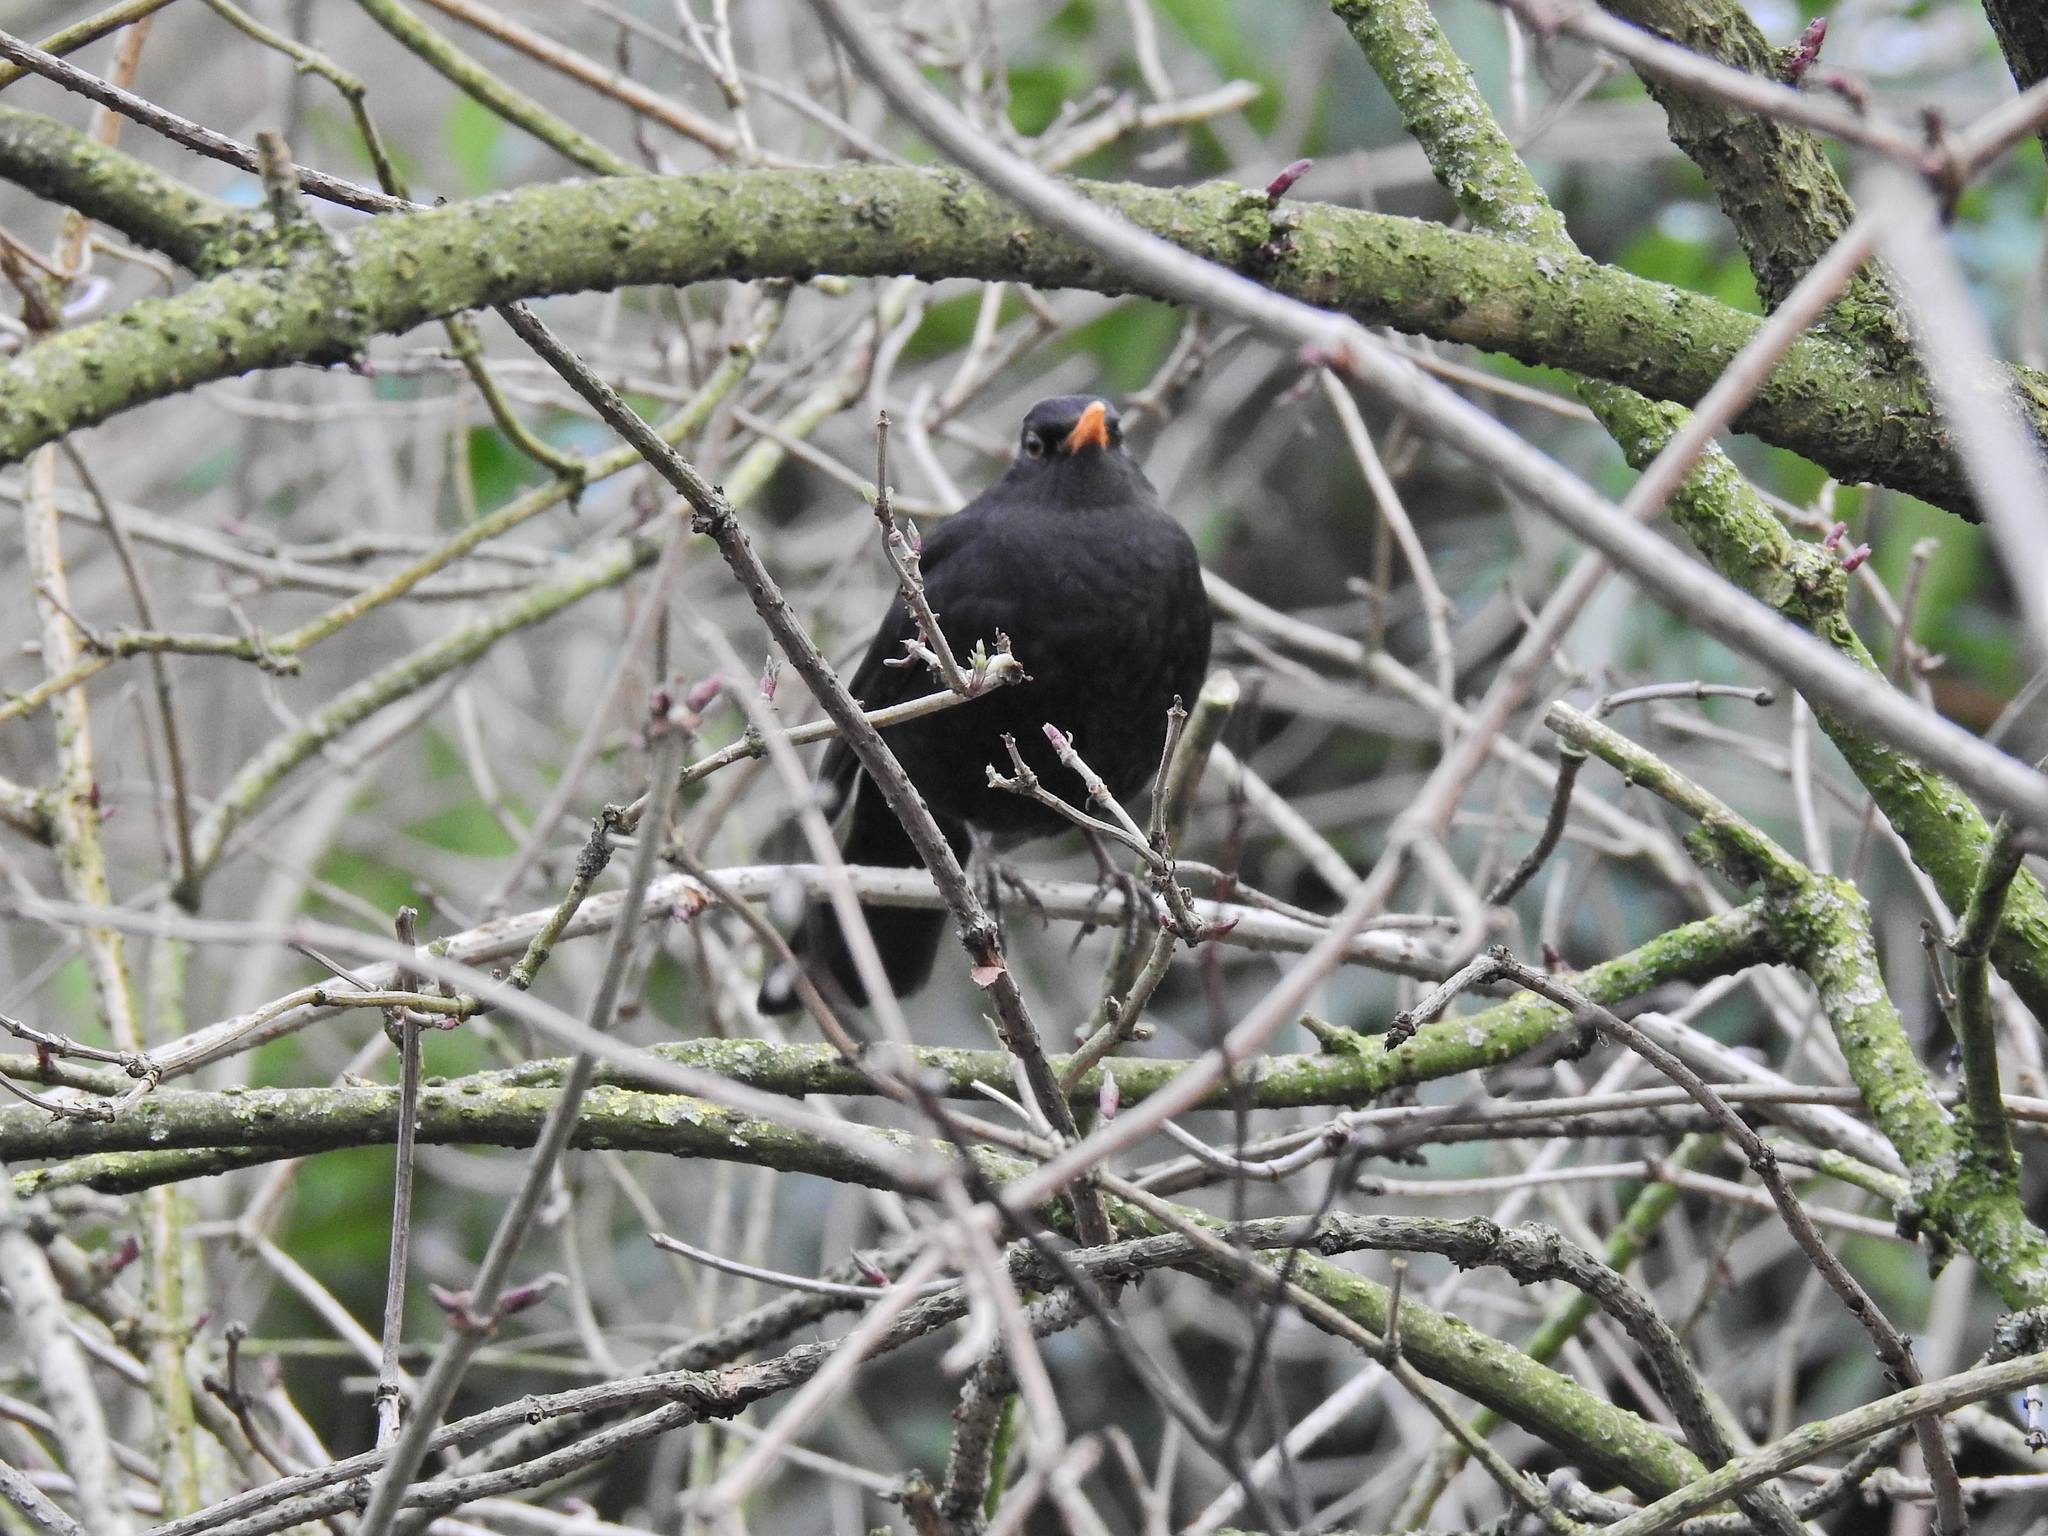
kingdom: Animalia
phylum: Chordata
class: Aves
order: Passeriformes
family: Turdidae
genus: Turdus
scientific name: Turdus merula
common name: Common blackbird
